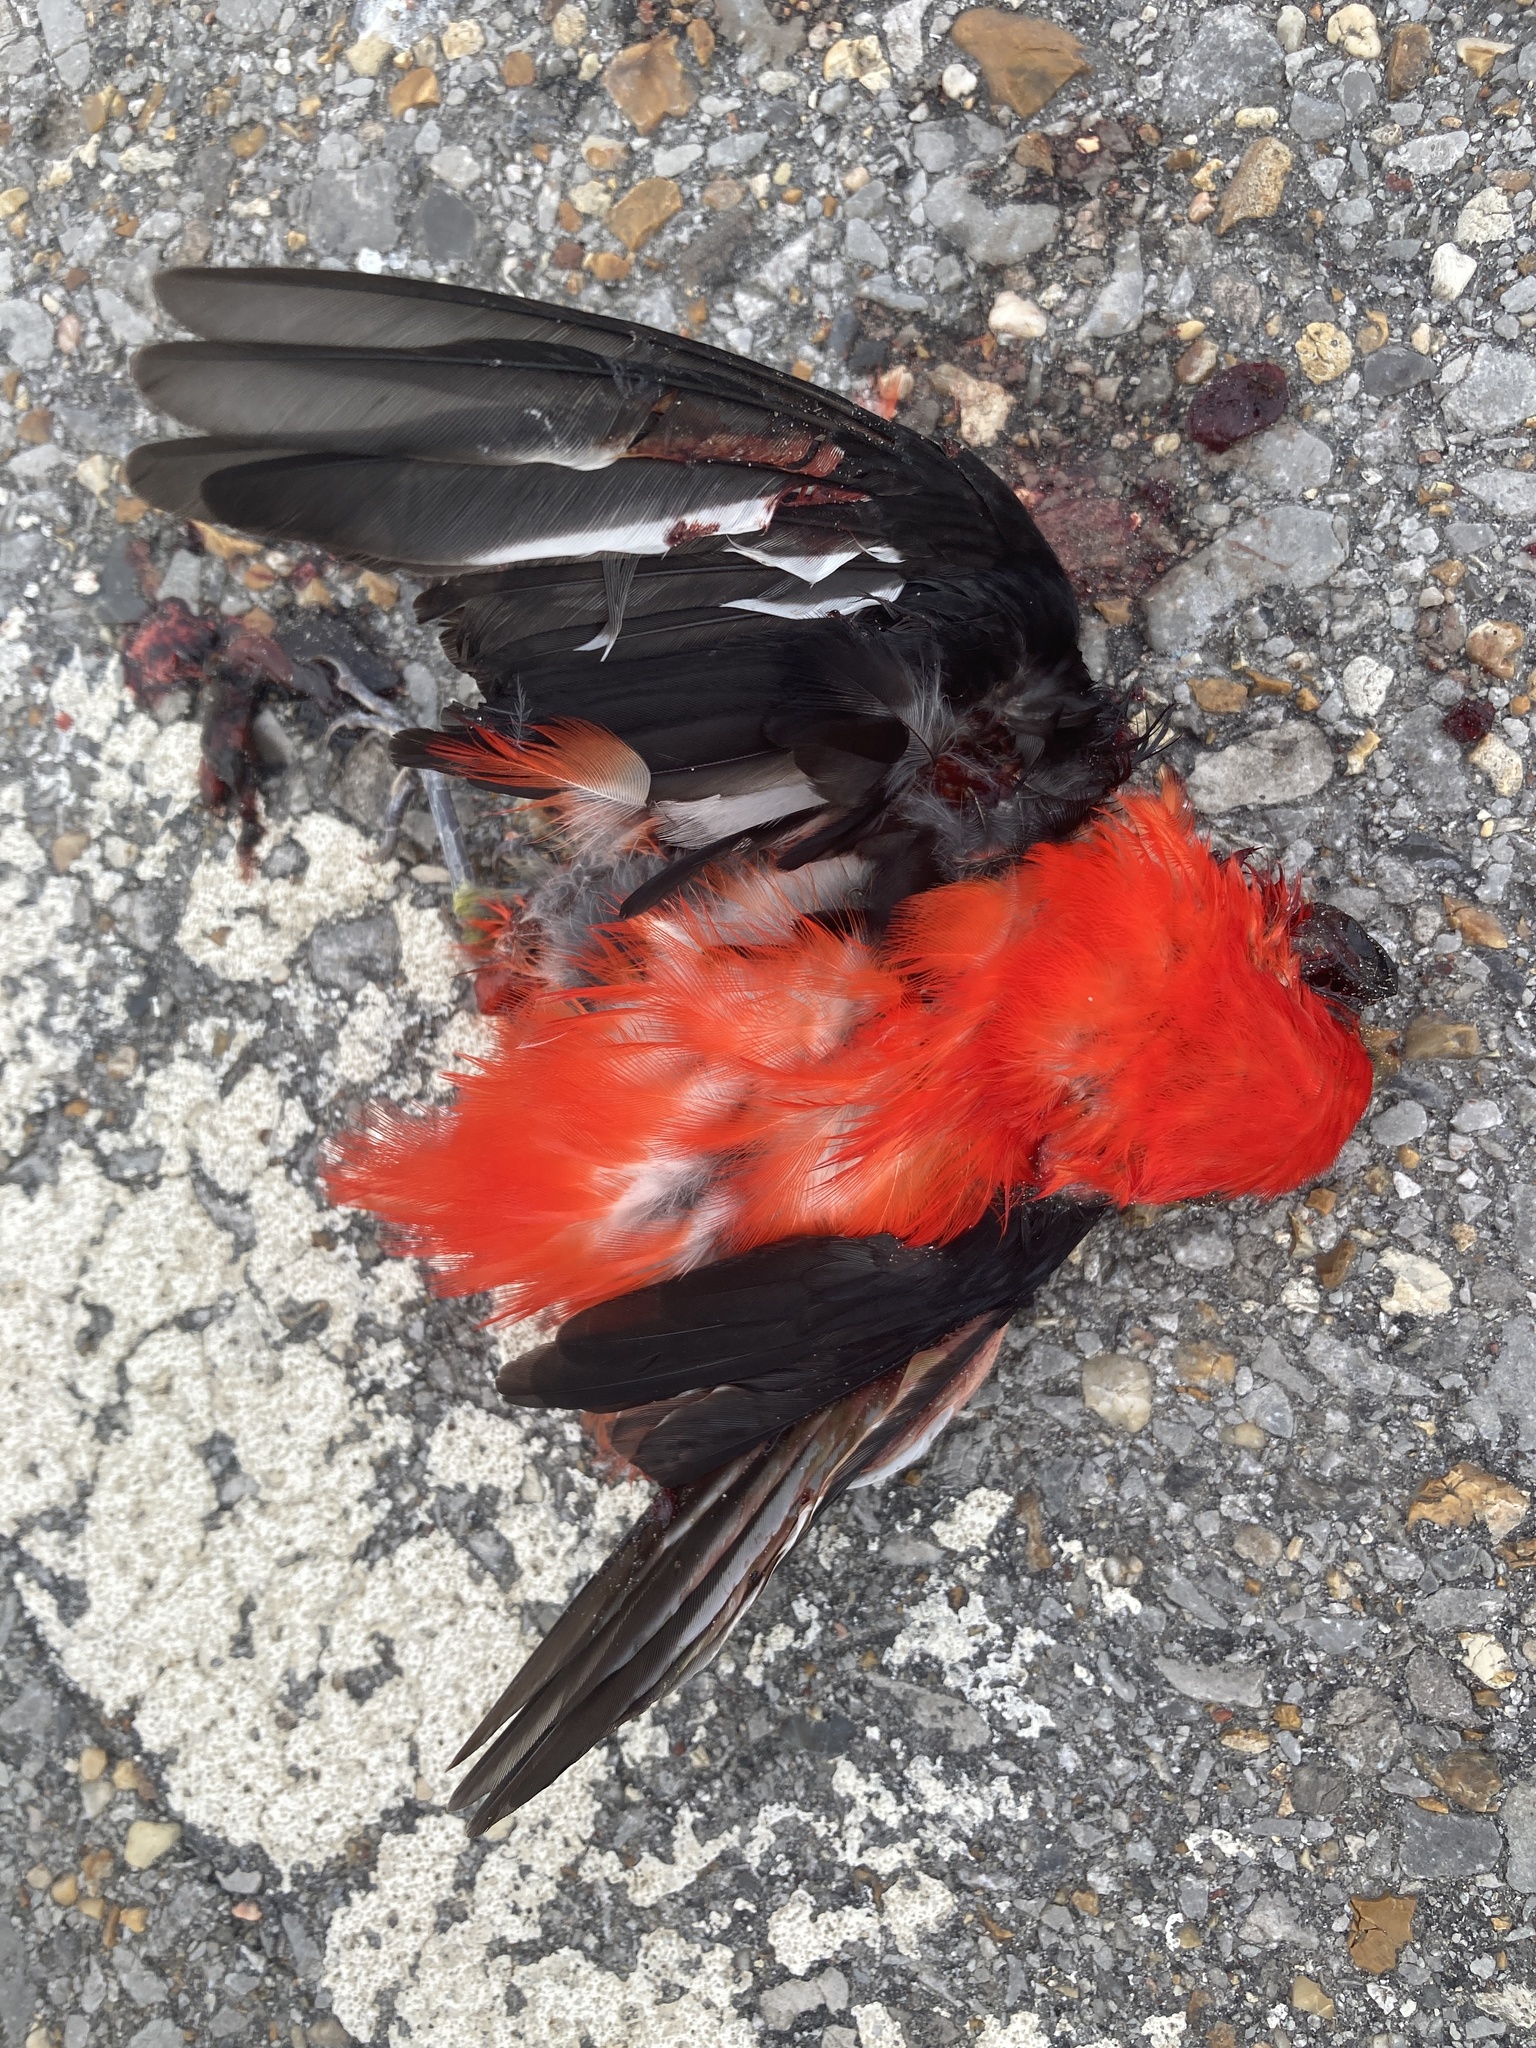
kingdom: Animalia
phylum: Chordata
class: Aves
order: Passeriformes
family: Cardinalidae
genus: Piranga
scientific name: Piranga olivacea
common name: Scarlet tanager
